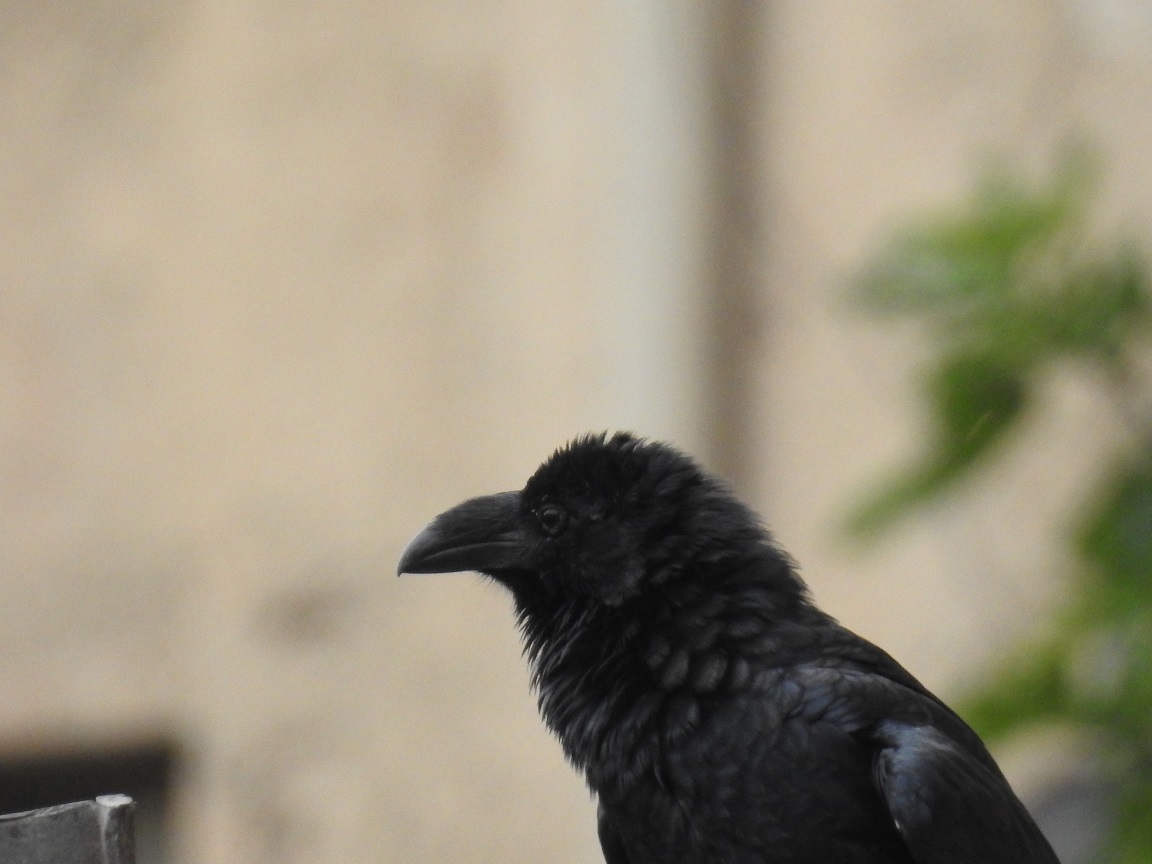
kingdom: Animalia
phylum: Chordata
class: Aves
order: Passeriformes
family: Corvidae
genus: Corvus
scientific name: Corvus corax
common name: Common raven
